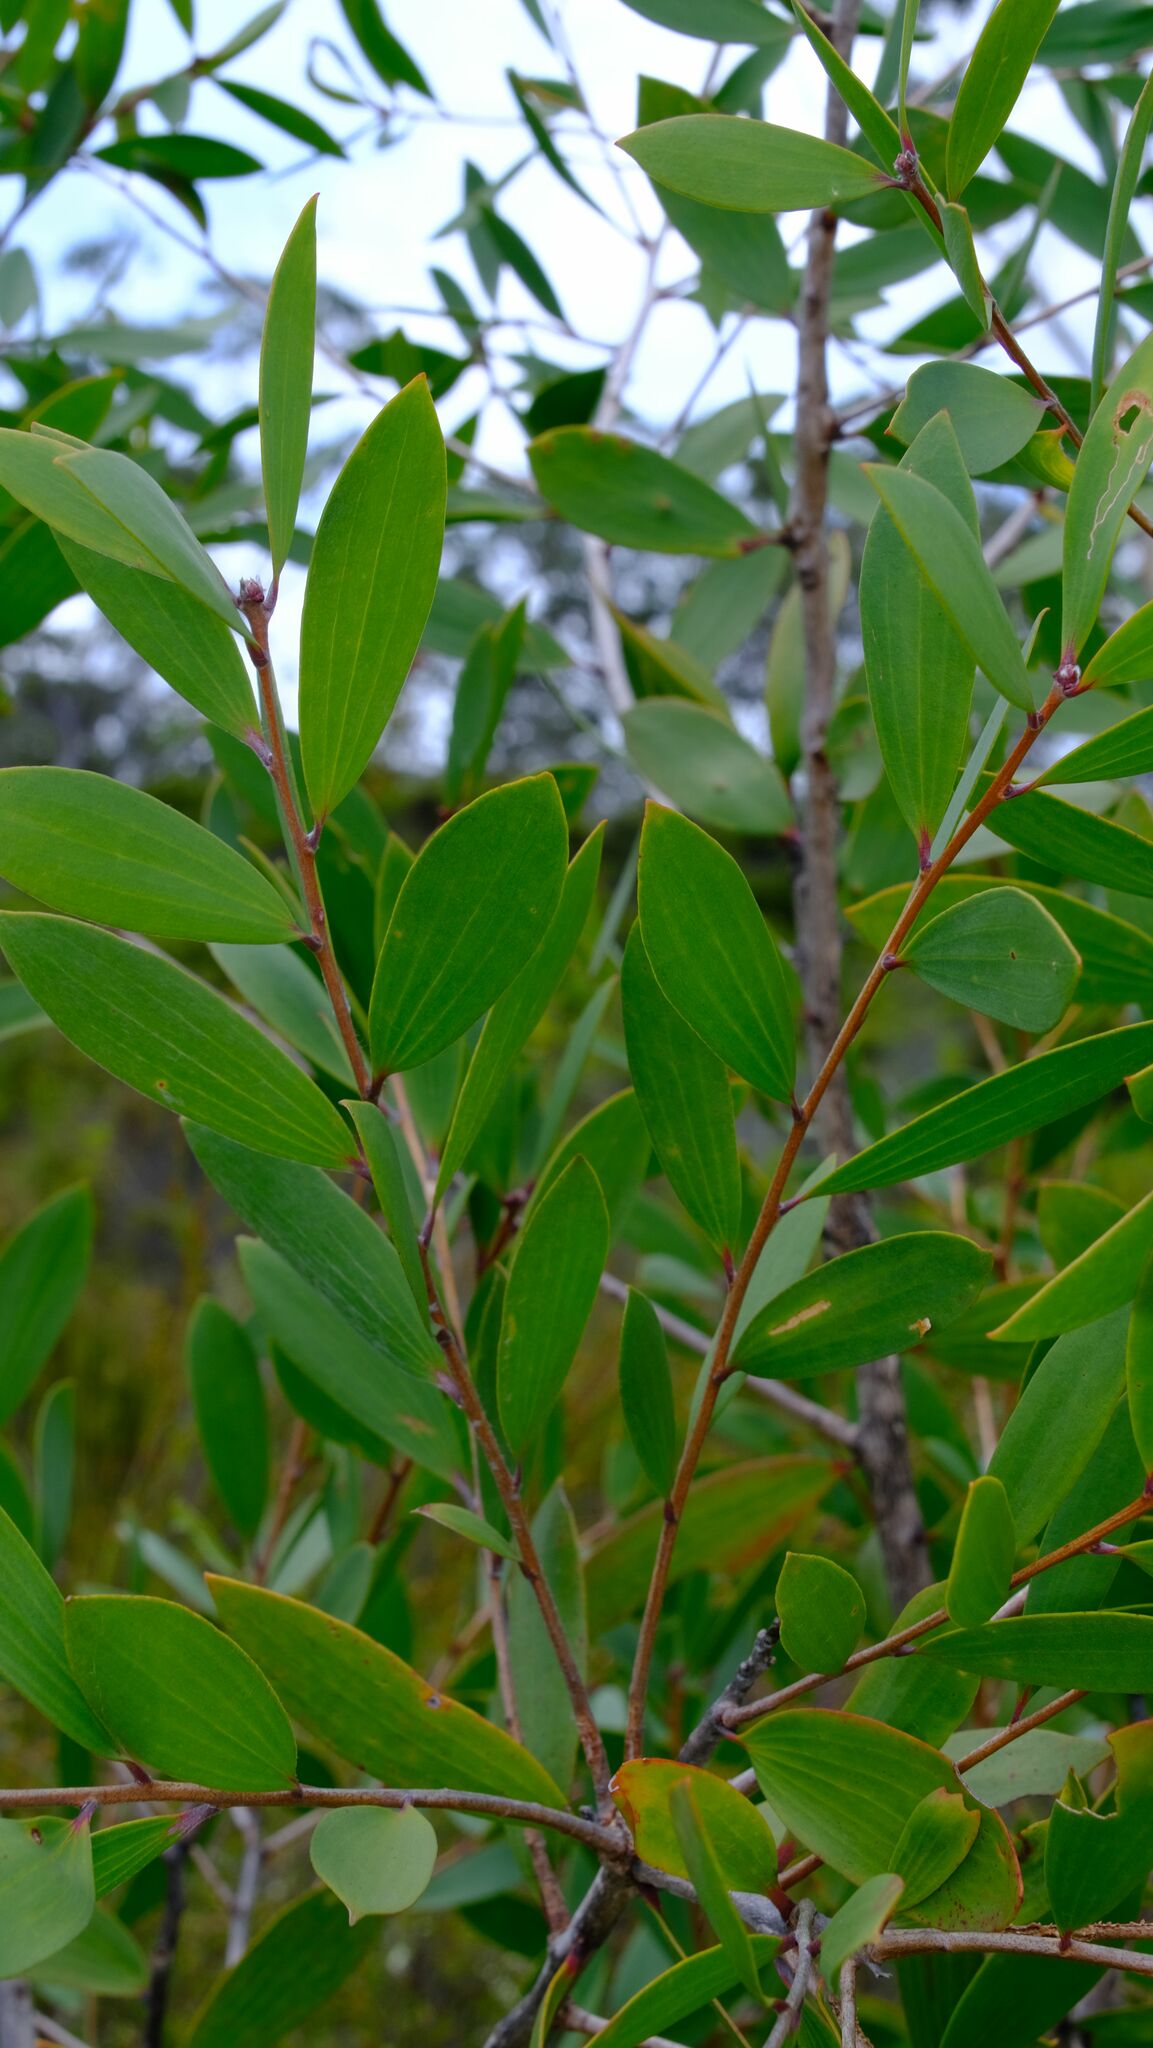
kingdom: Plantae
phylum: Tracheophyta
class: Magnoliopsida
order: Myrtales
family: Myrtaceae
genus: Melaleuca
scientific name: Melaleuca quinquenervia
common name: Punktree
